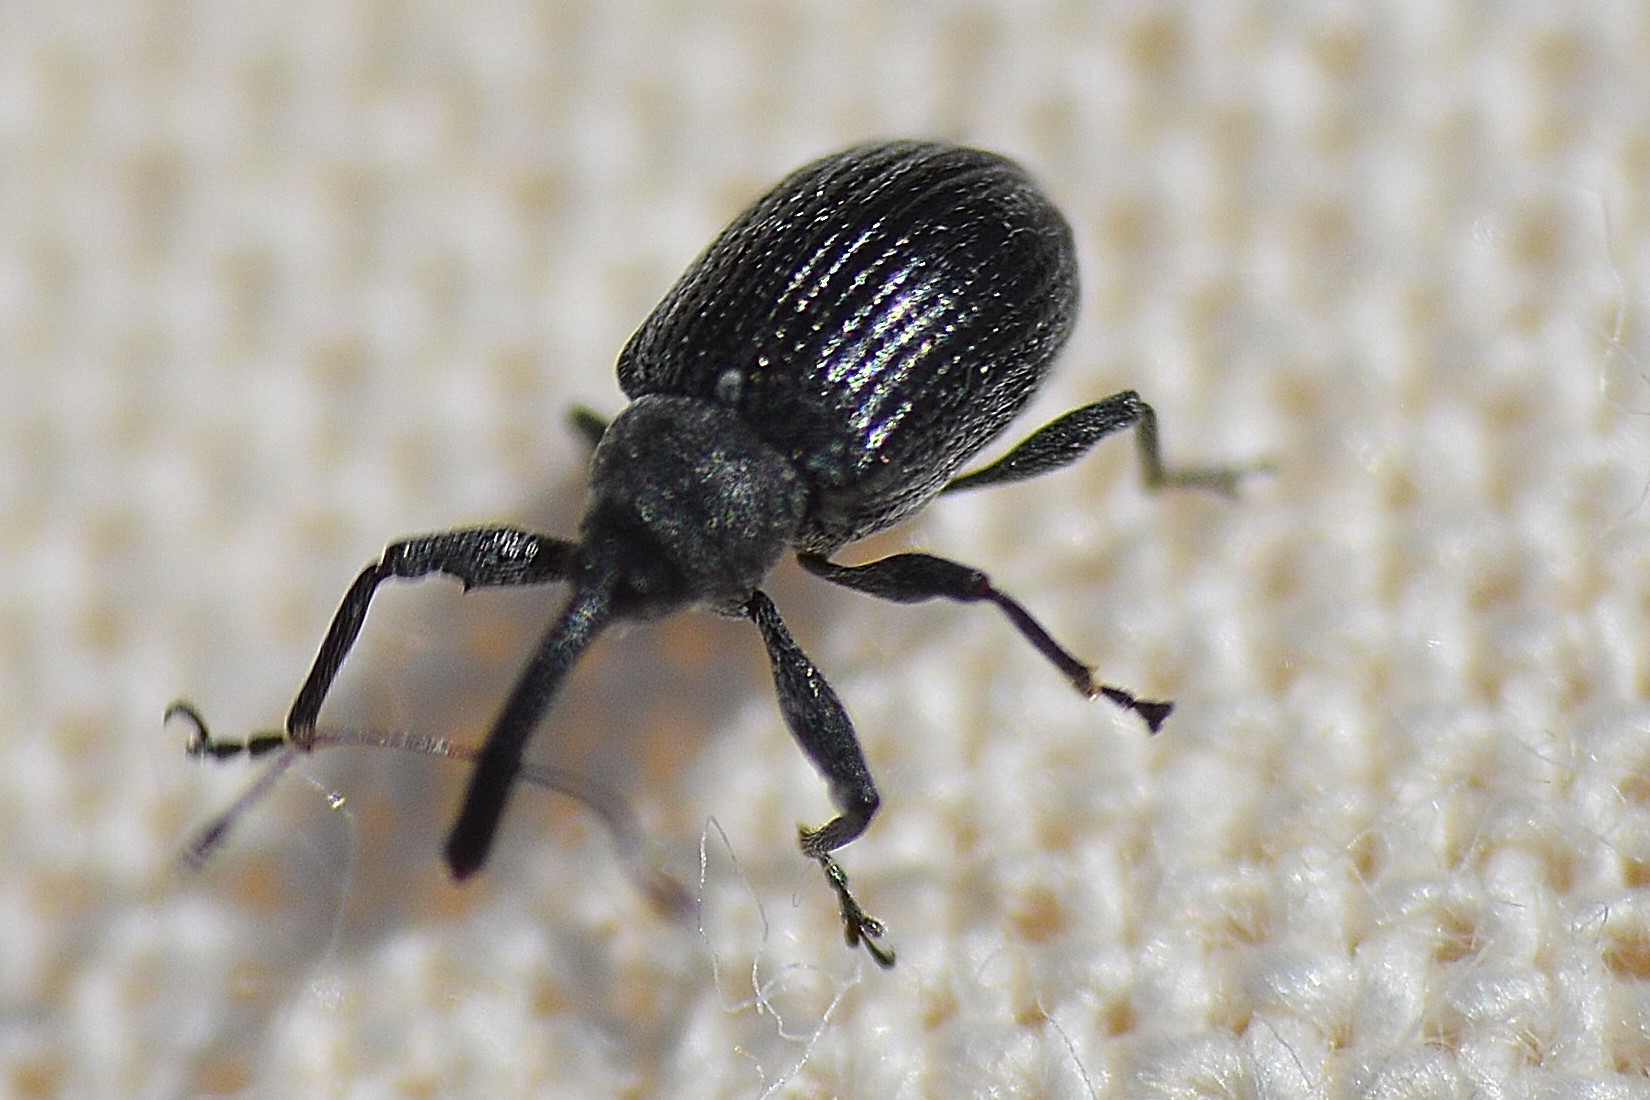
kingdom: Animalia
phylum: Arthropoda
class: Insecta
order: Coleoptera
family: Curculionidae
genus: Anthonomus
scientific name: Anthonomus rubi
